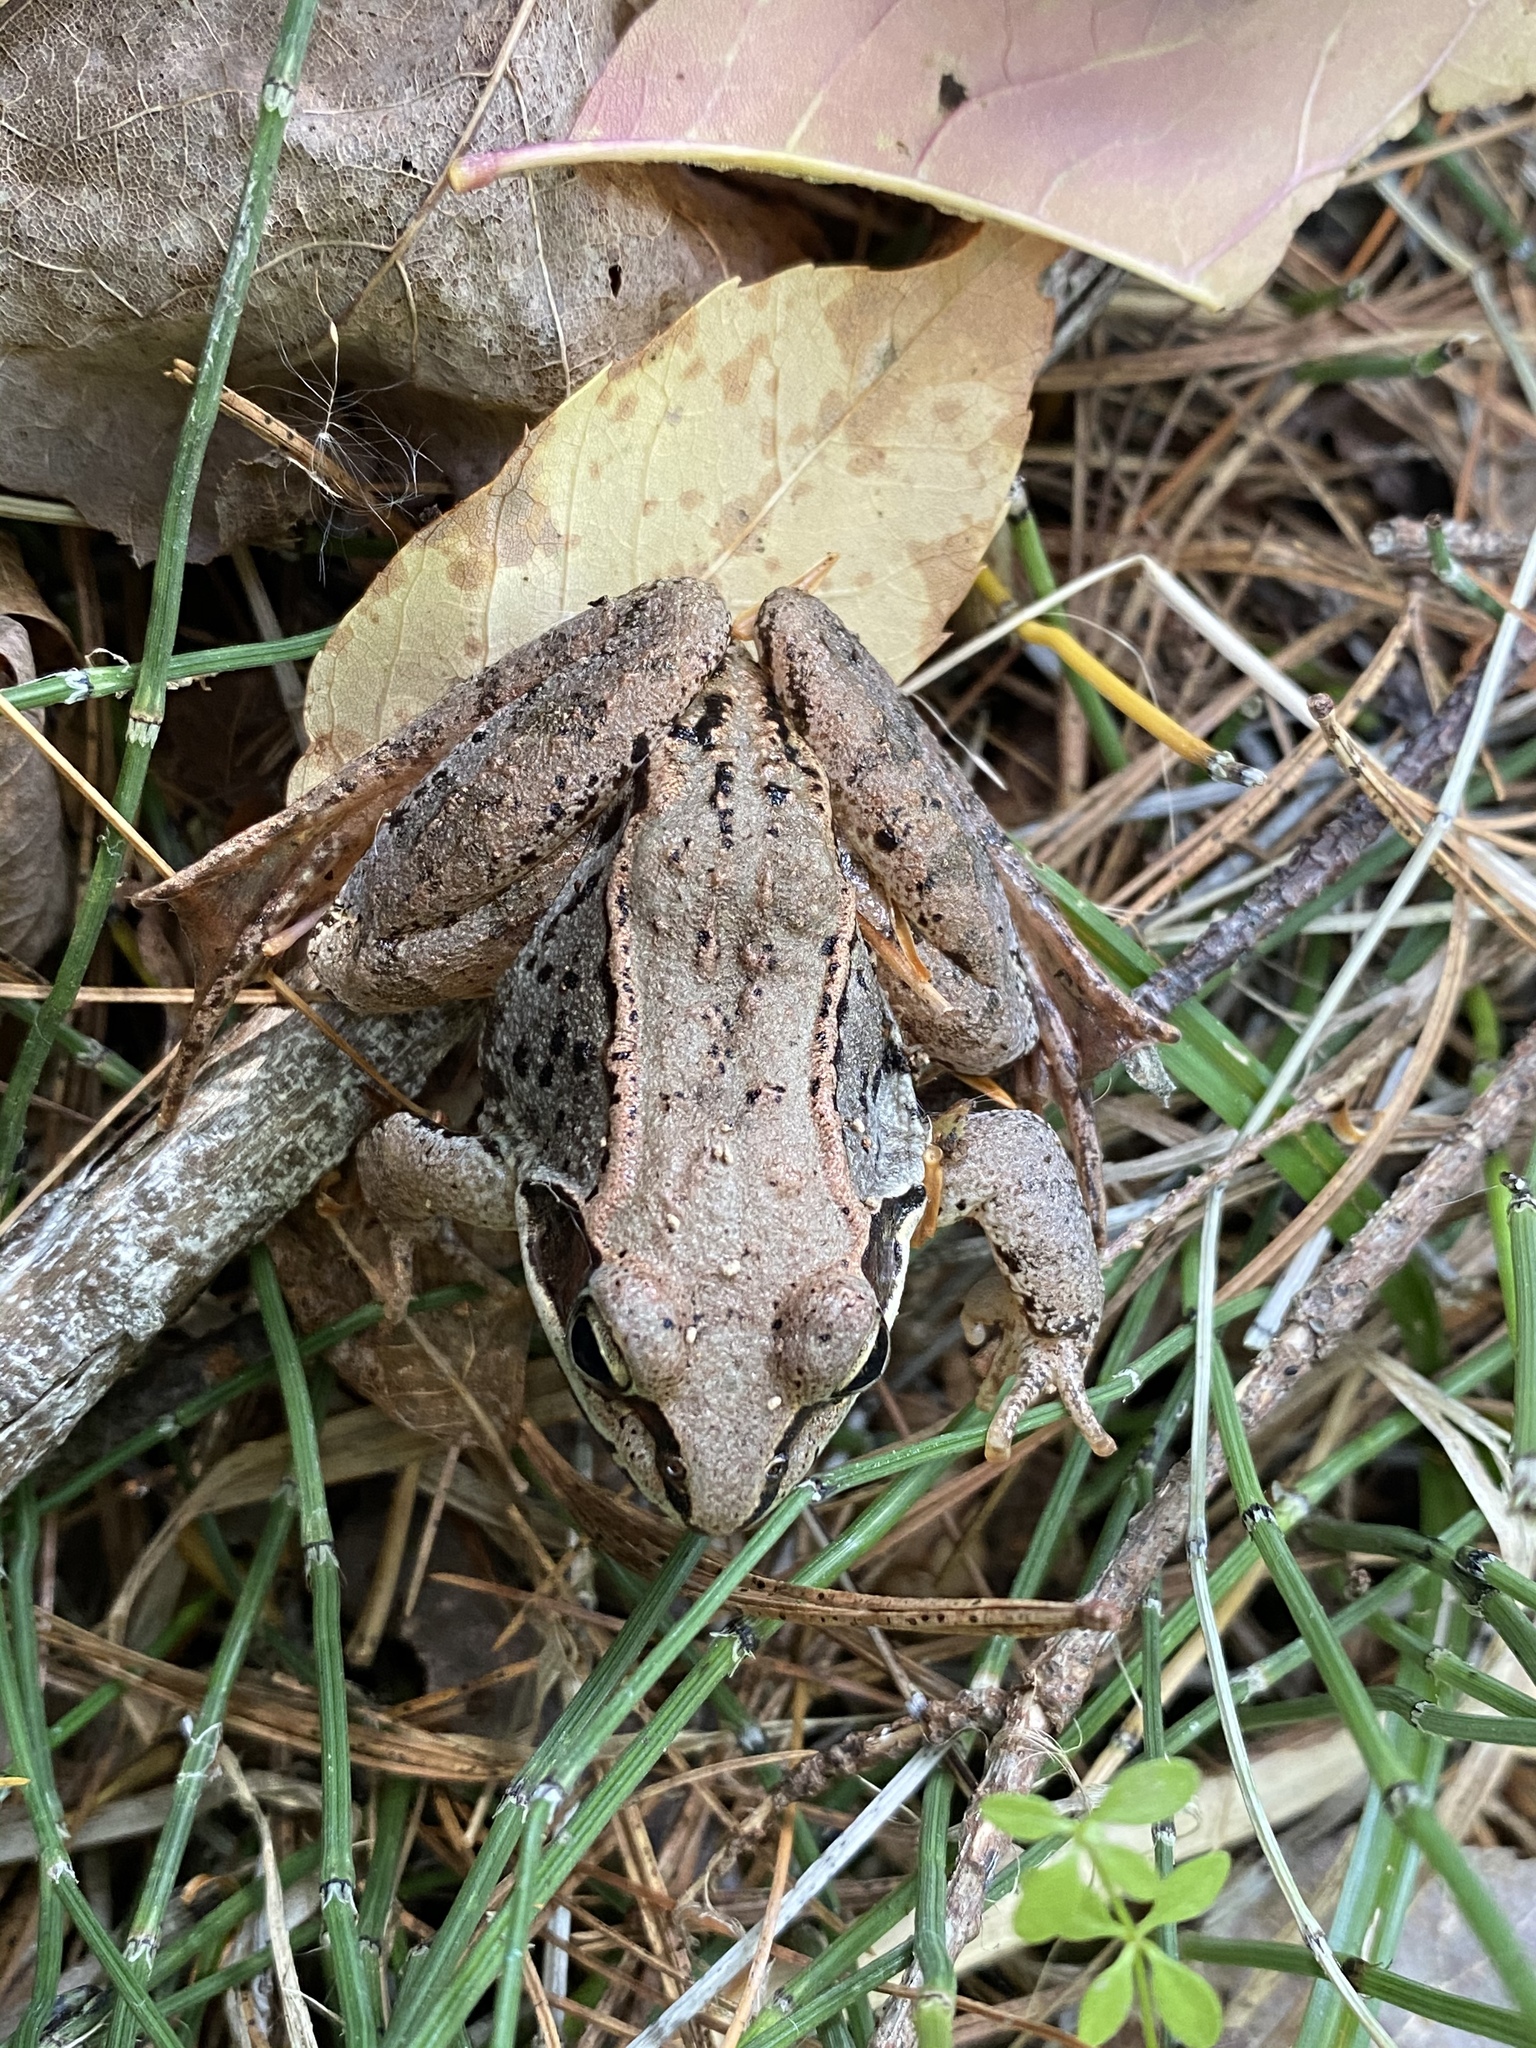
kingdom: Animalia
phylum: Chordata
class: Amphibia
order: Anura
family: Ranidae
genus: Lithobates
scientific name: Lithobates sylvaticus
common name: Wood frog
